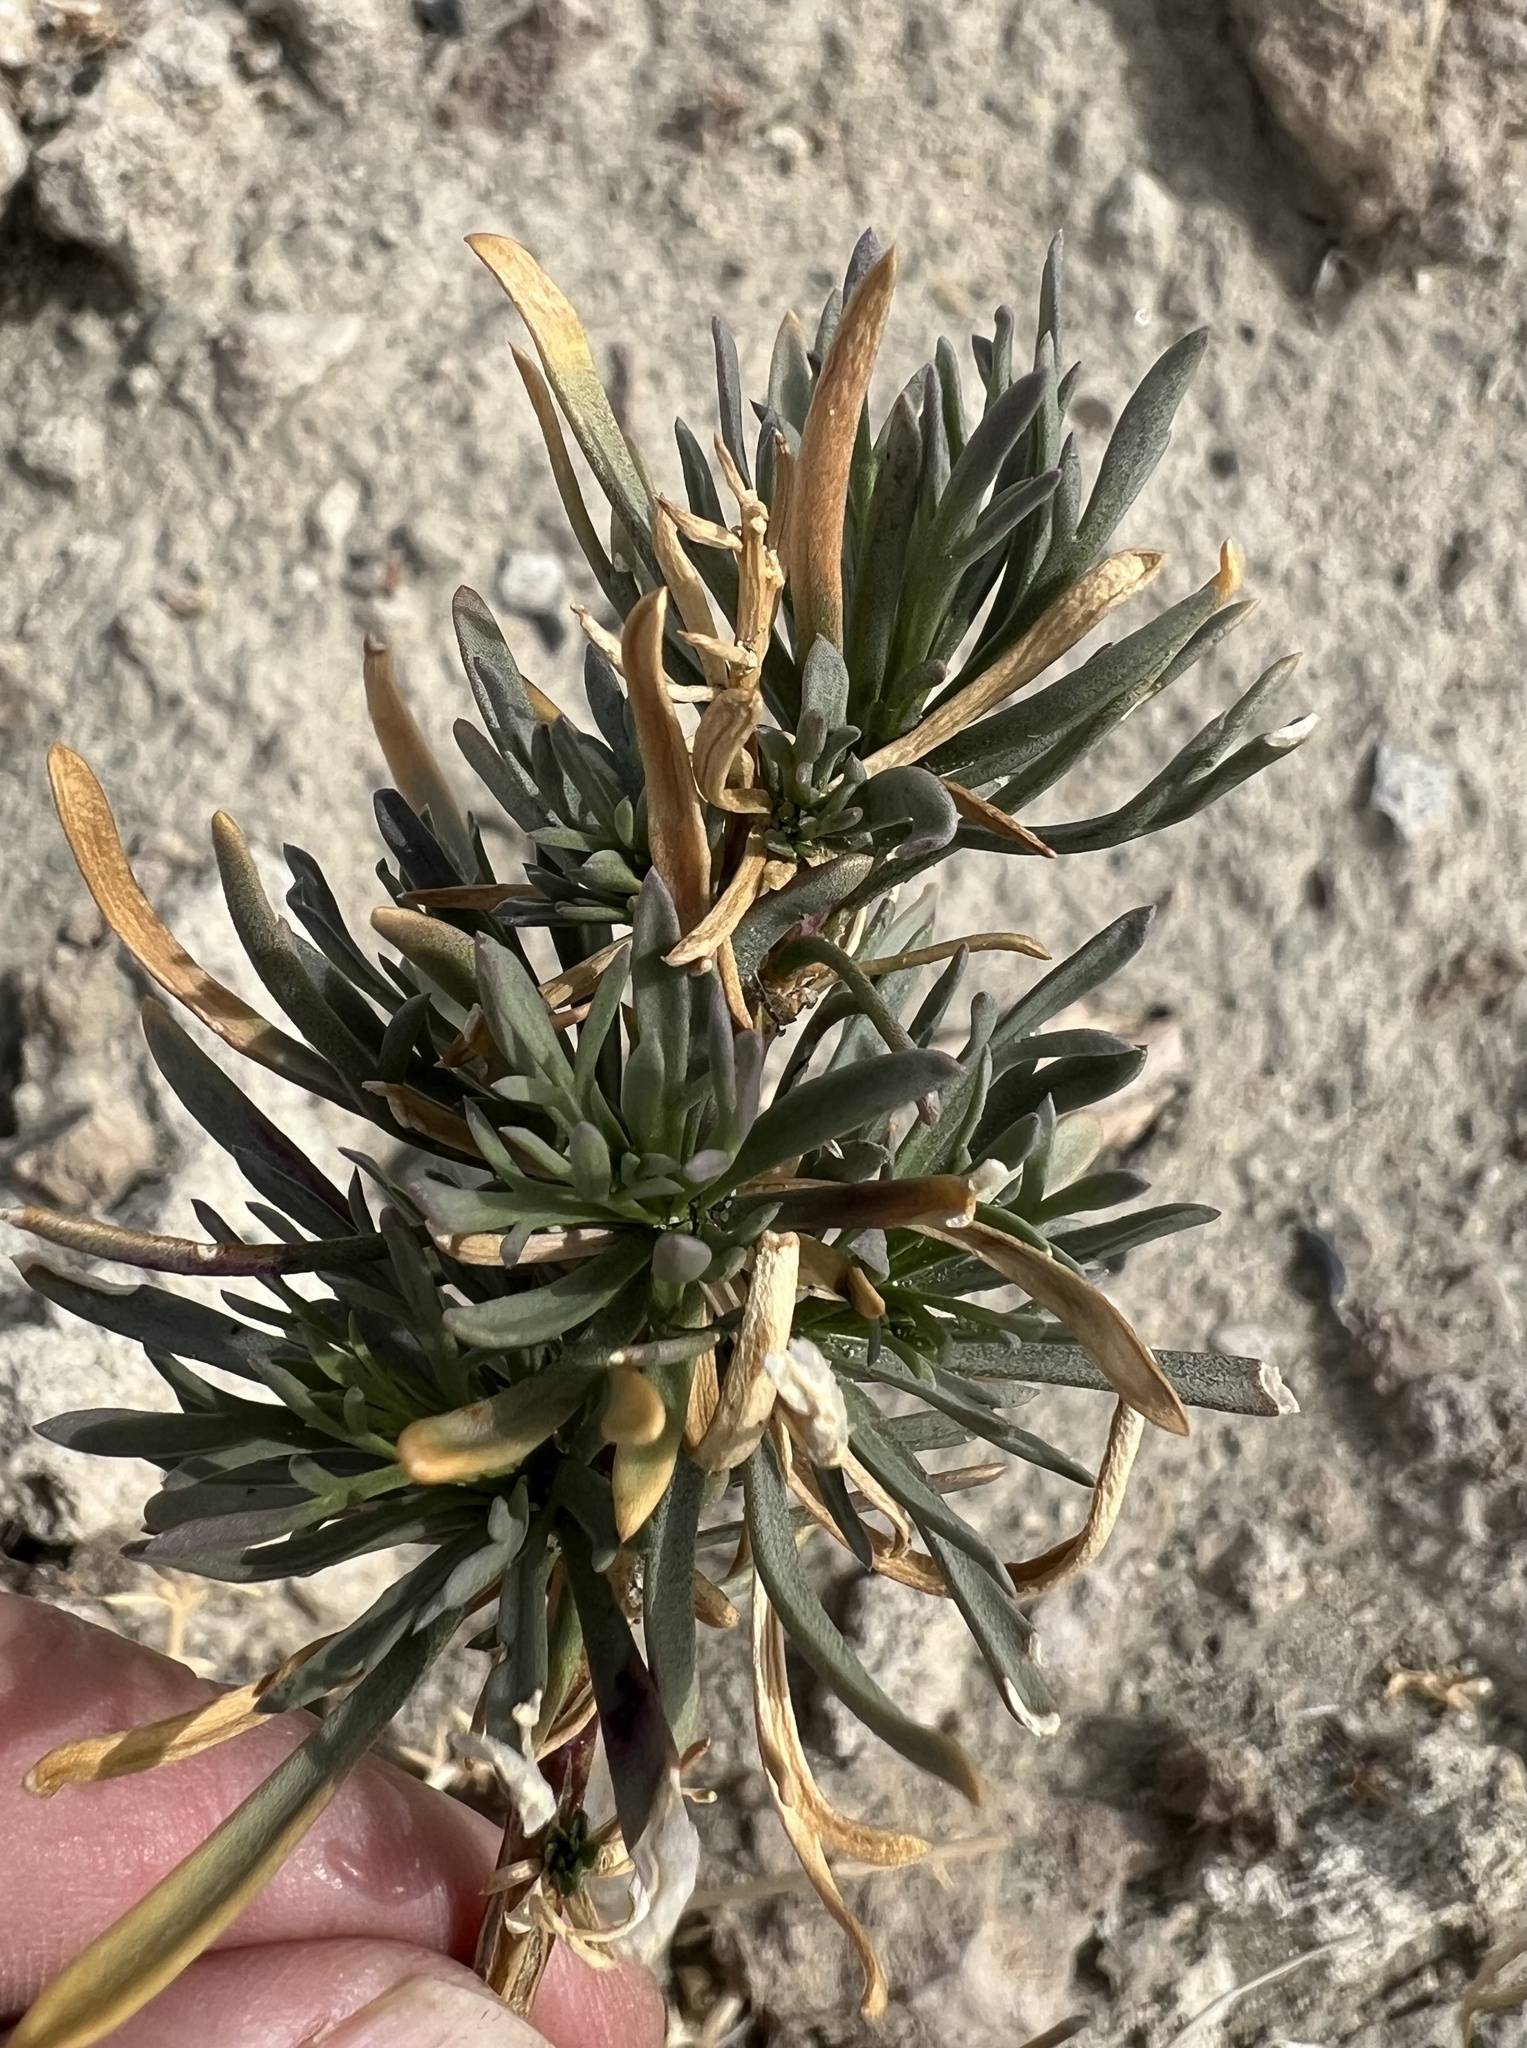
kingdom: Plantae
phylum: Tracheophyta
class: Magnoliopsida
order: Brassicales
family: Brassicaceae
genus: Lepidium
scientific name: Lepidium fremontii
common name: Fremont's pepperwort
